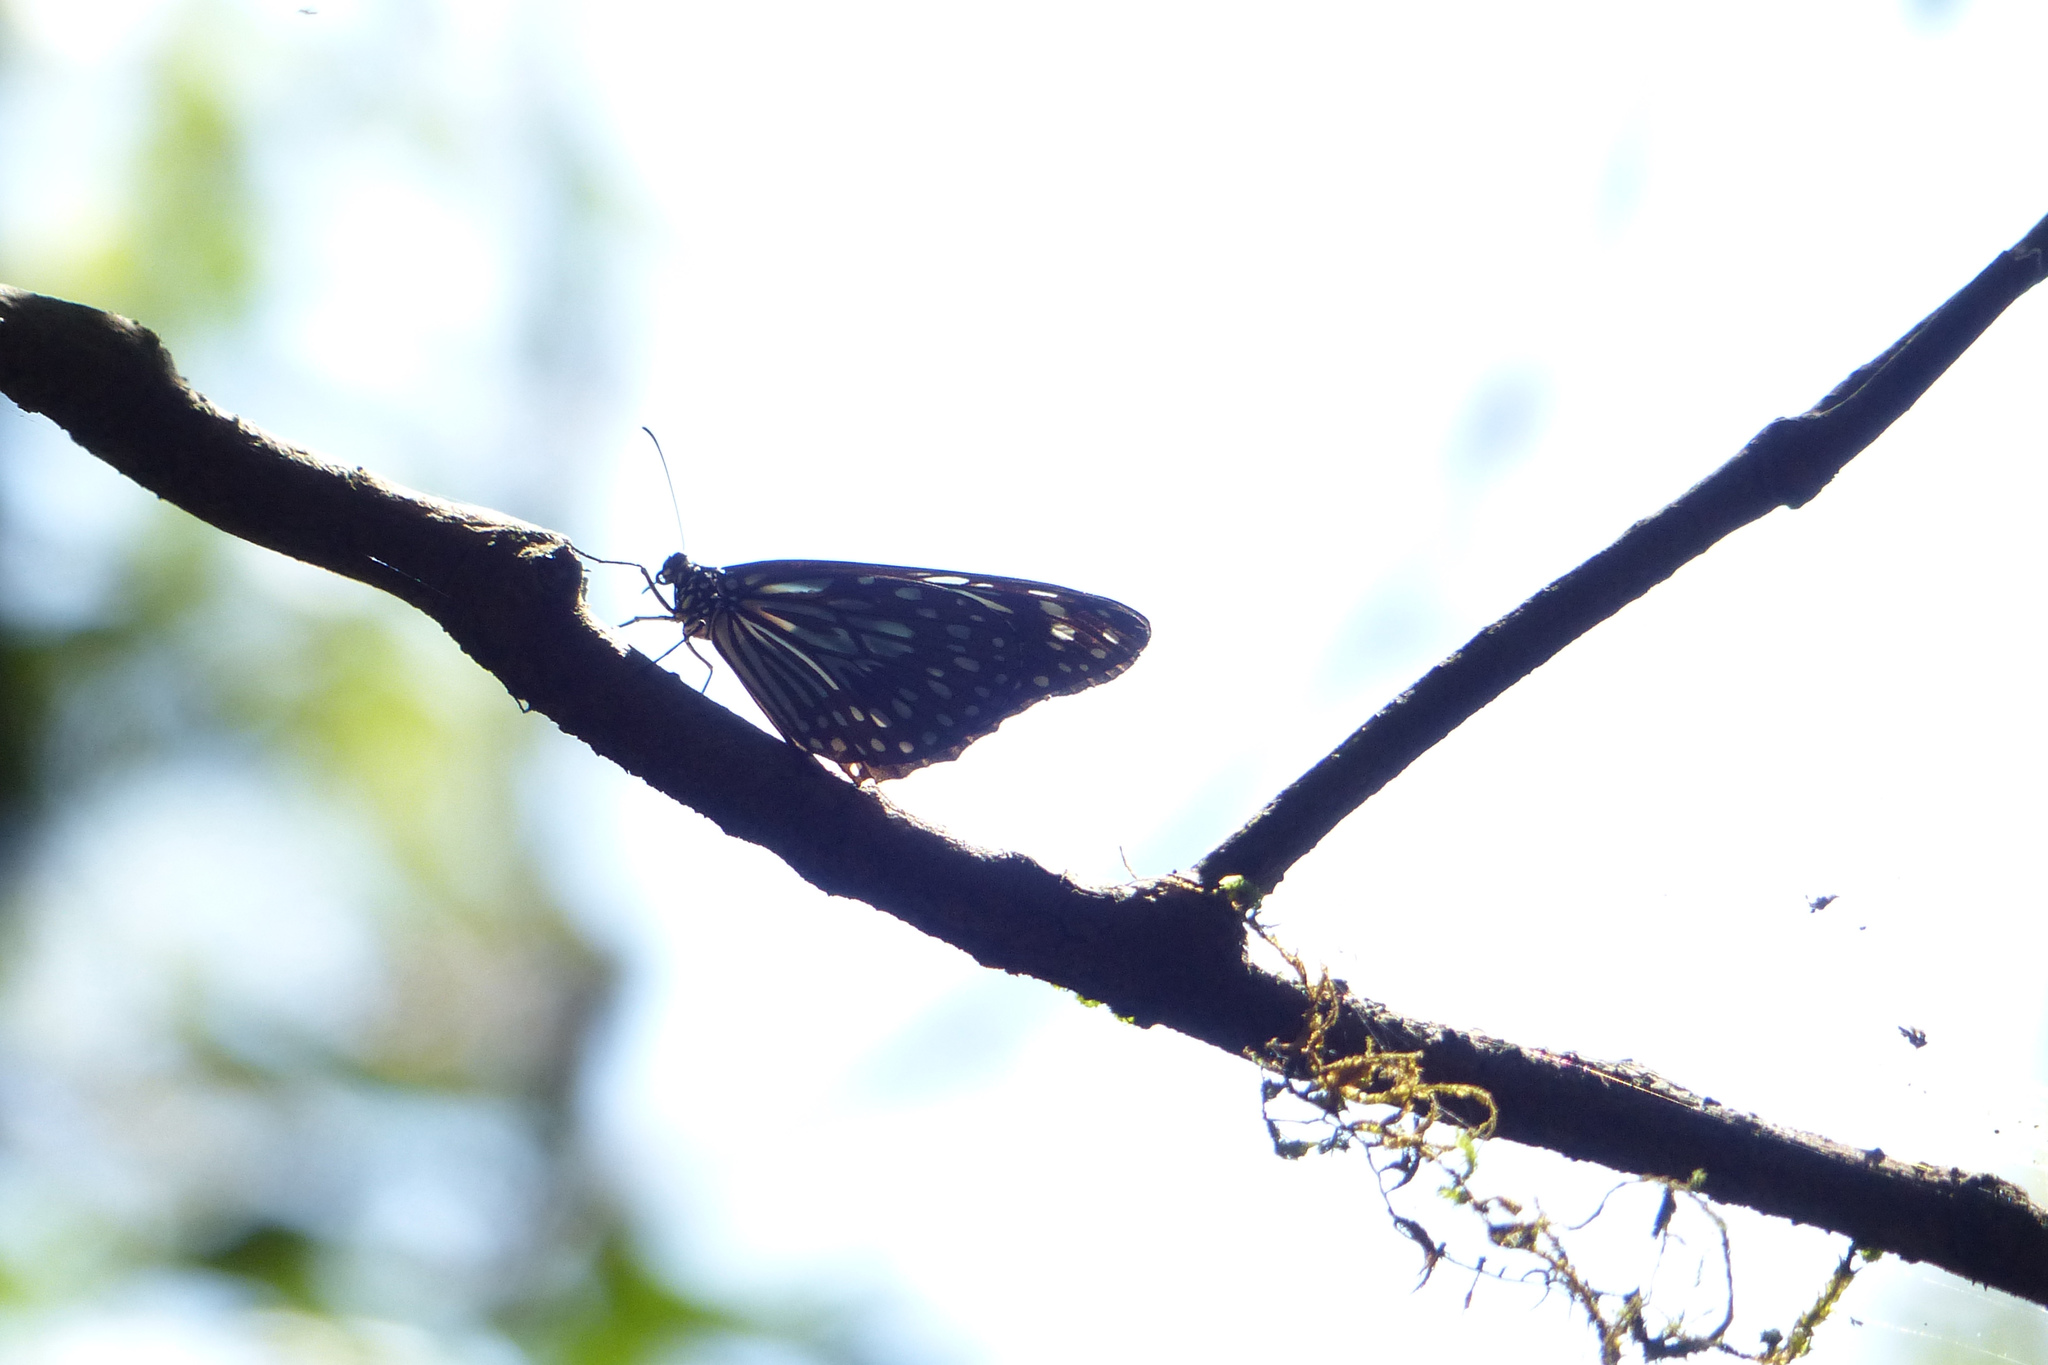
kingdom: Animalia
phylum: Arthropoda
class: Insecta
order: Lepidoptera
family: Nymphalidae
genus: Tirumala
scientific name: Tirumala septentrionis
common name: Dark blue tiger butterfly
